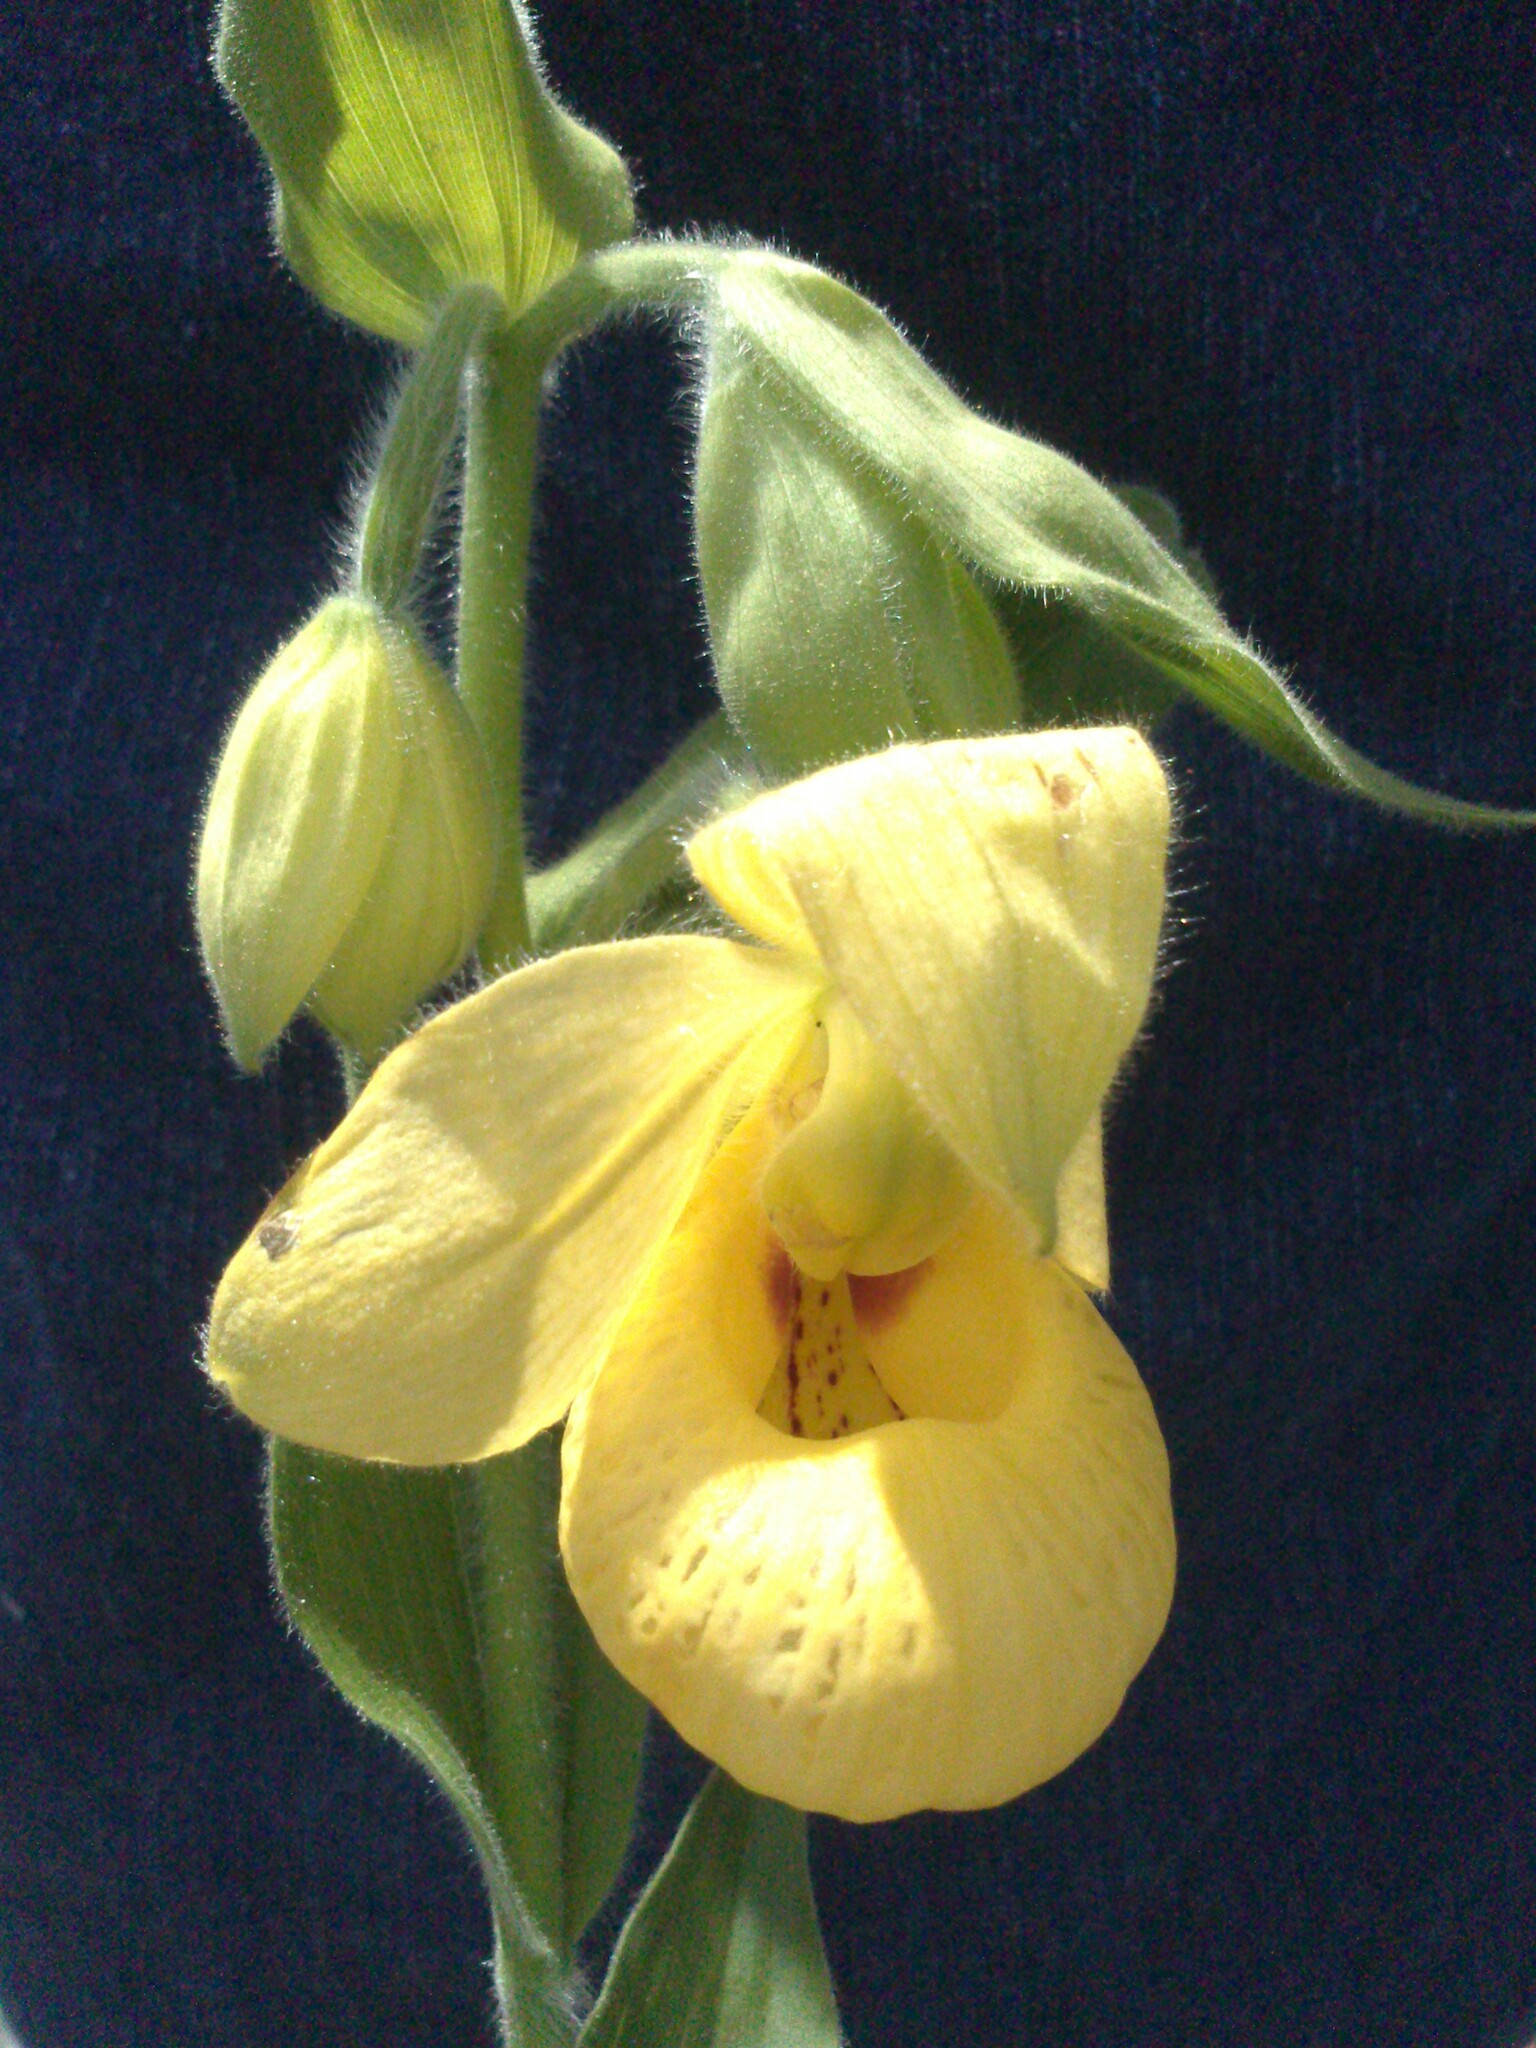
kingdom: Plantae
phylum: Tracheophyta
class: Liliopsida
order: Asparagales
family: Orchidaceae
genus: Cypripedium
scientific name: Cypripedium irapeanum
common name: Irapeao cypripedium
